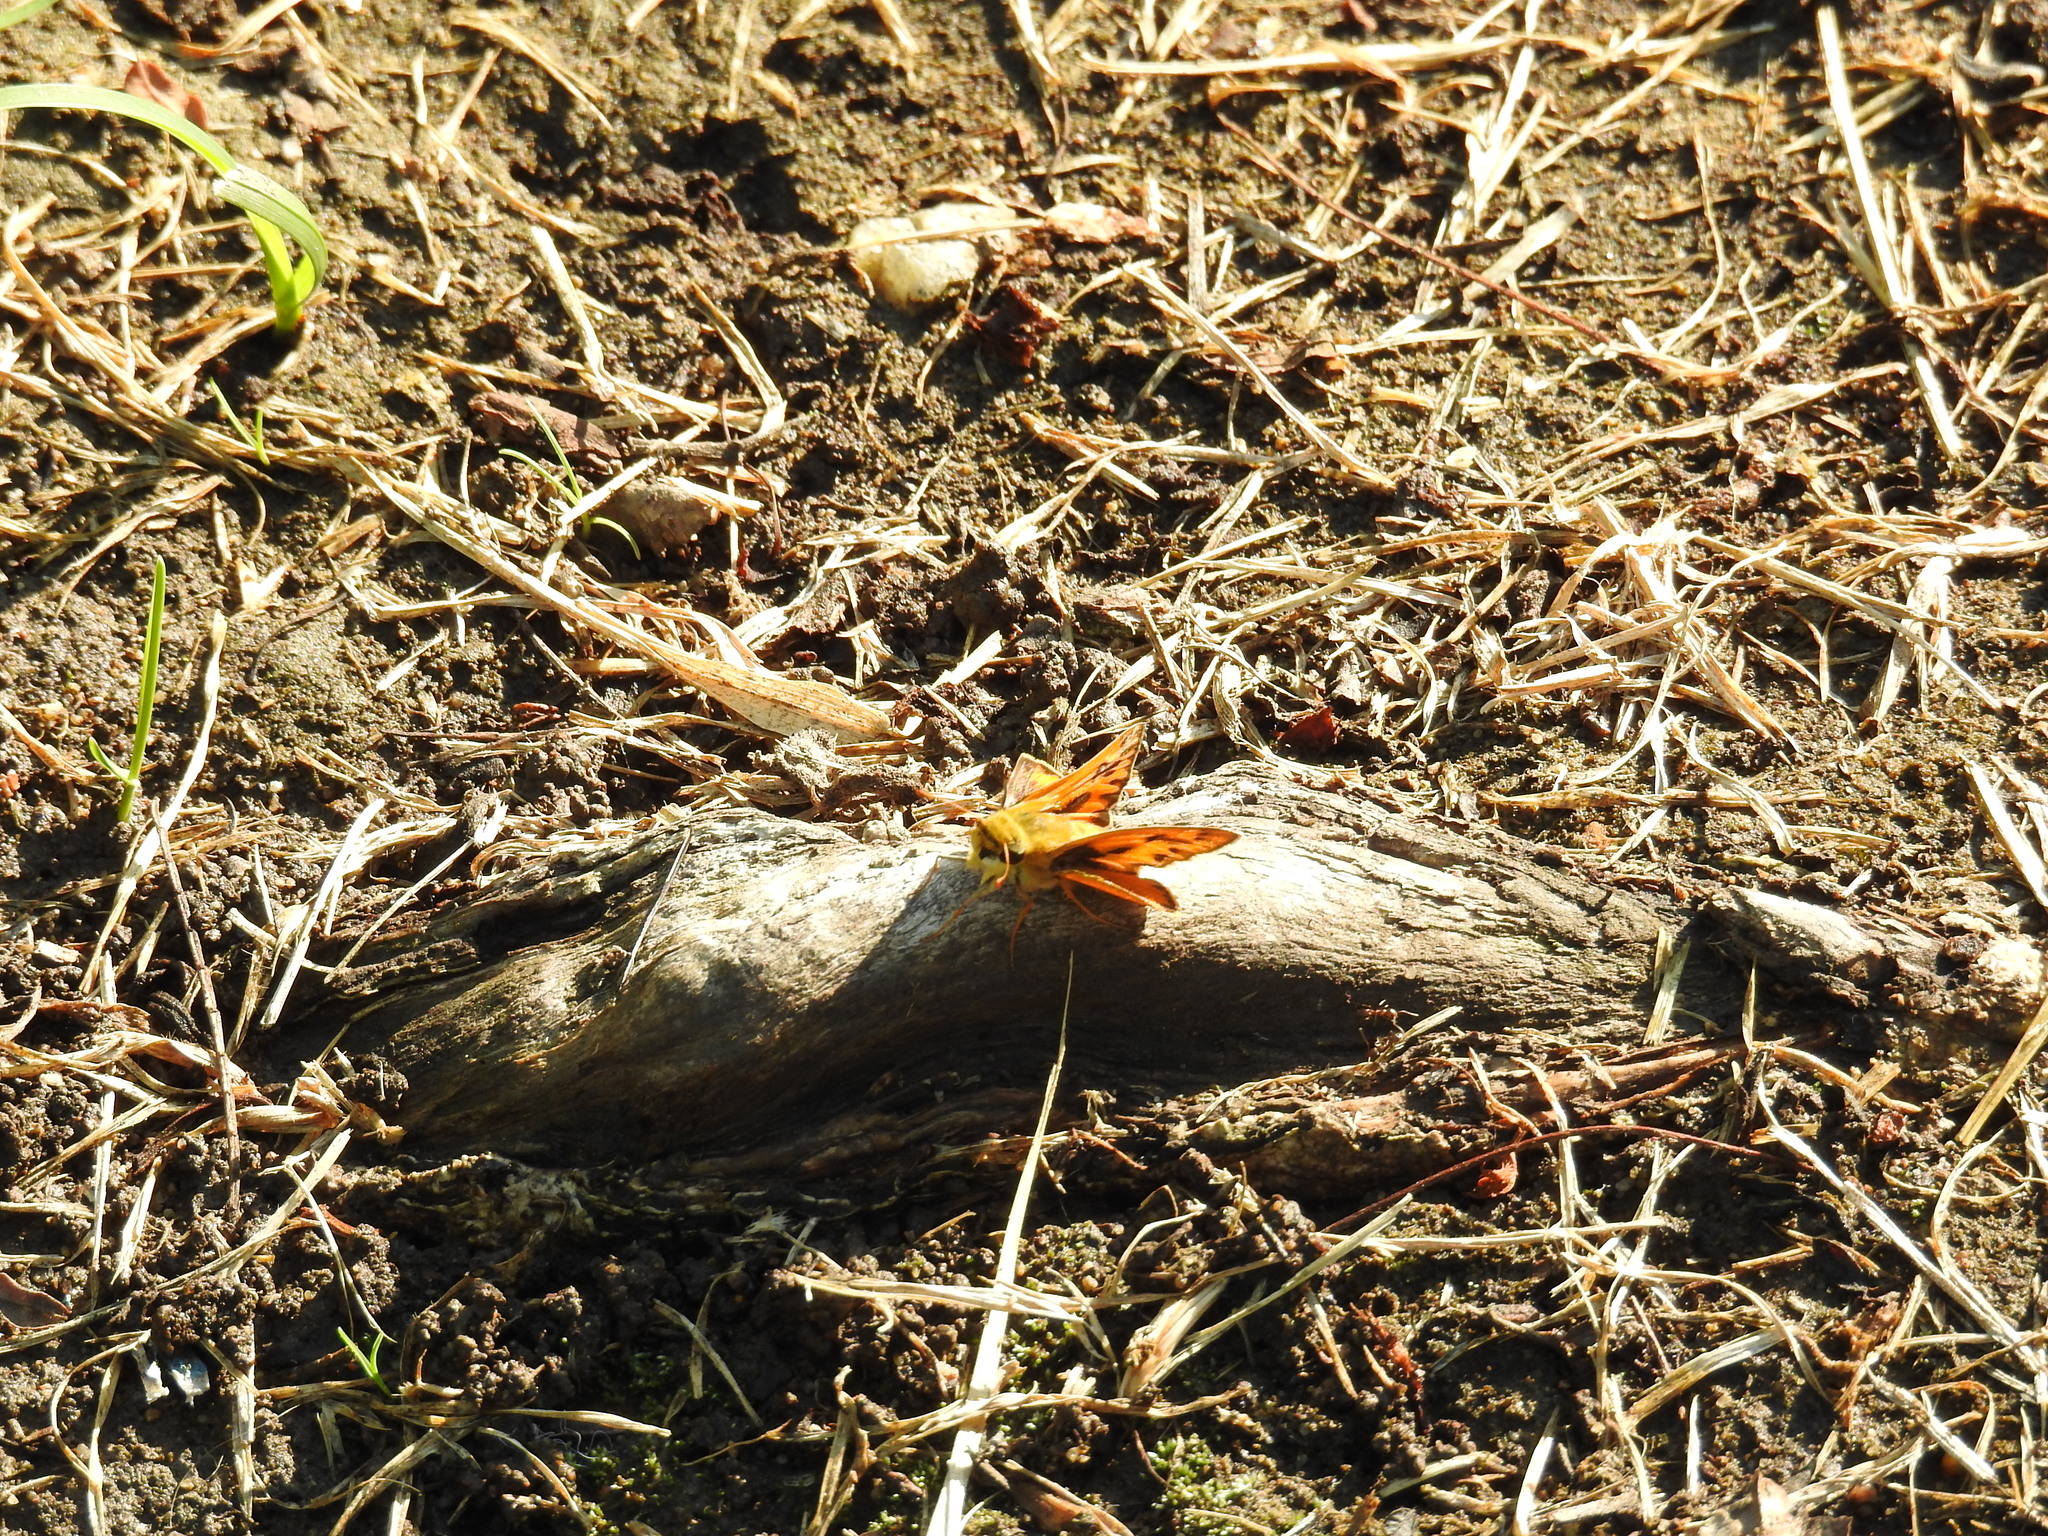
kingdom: Animalia
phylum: Arthropoda
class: Insecta
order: Lepidoptera
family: Hesperiidae
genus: Hylephila
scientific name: Hylephila phyleus
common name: Fiery skipper
